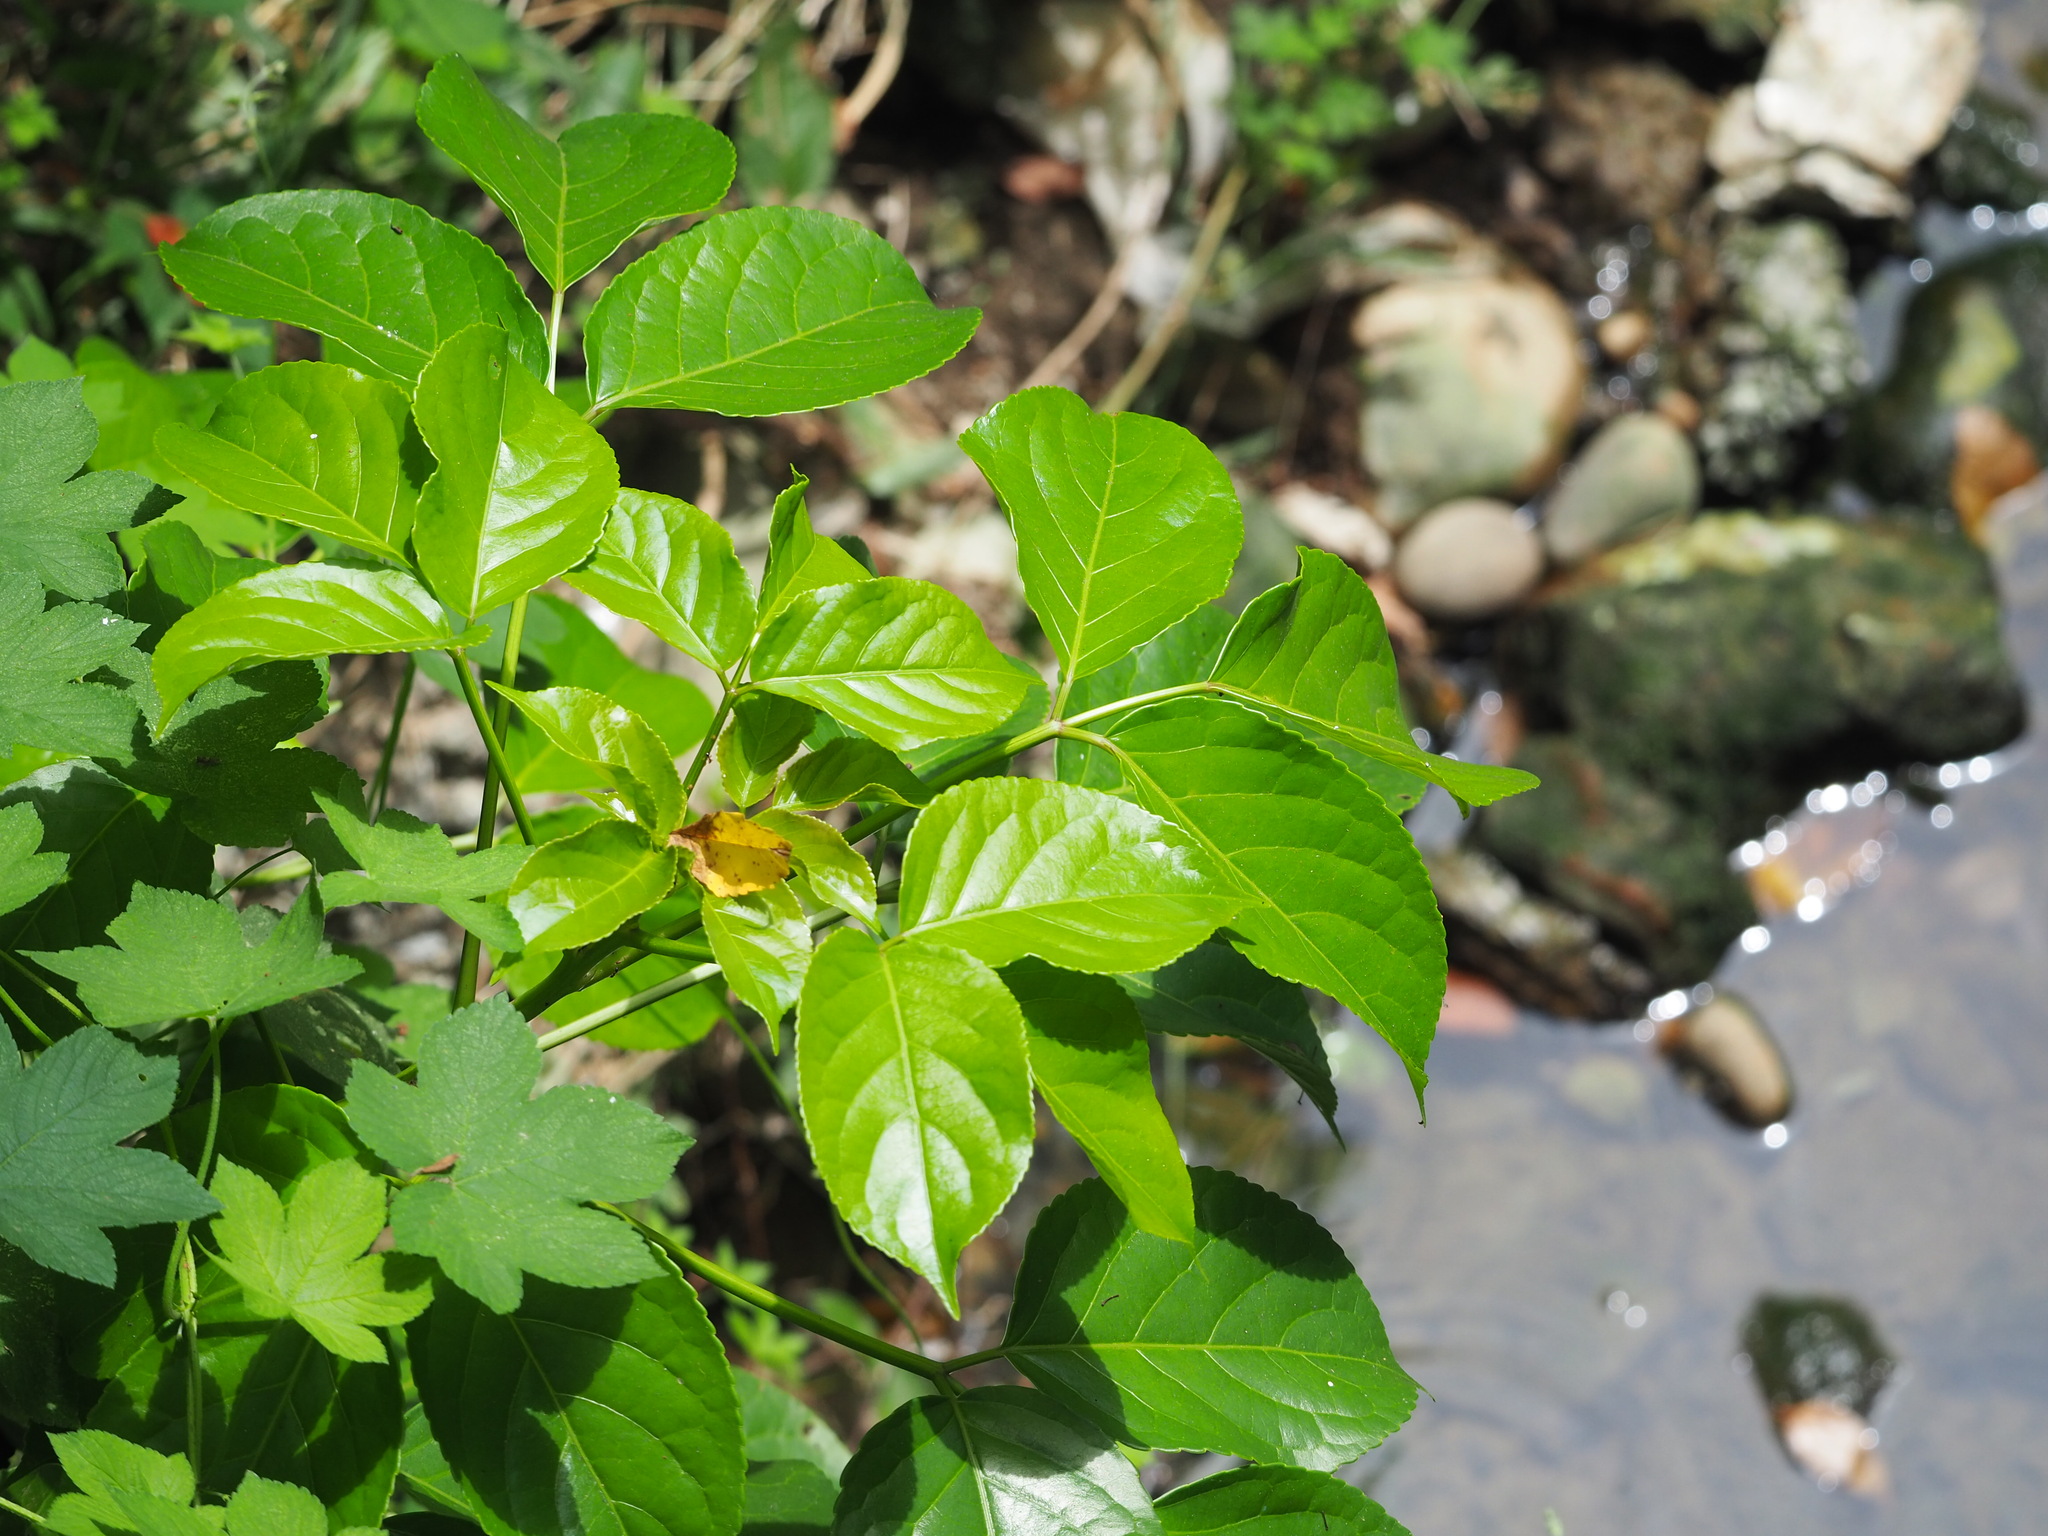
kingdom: Plantae
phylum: Tracheophyta
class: Magnoliopsida
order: Malpighiales
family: Phyllanthaceae
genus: Bischofia
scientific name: Bischofia javanica
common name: Javanese bishopwood
